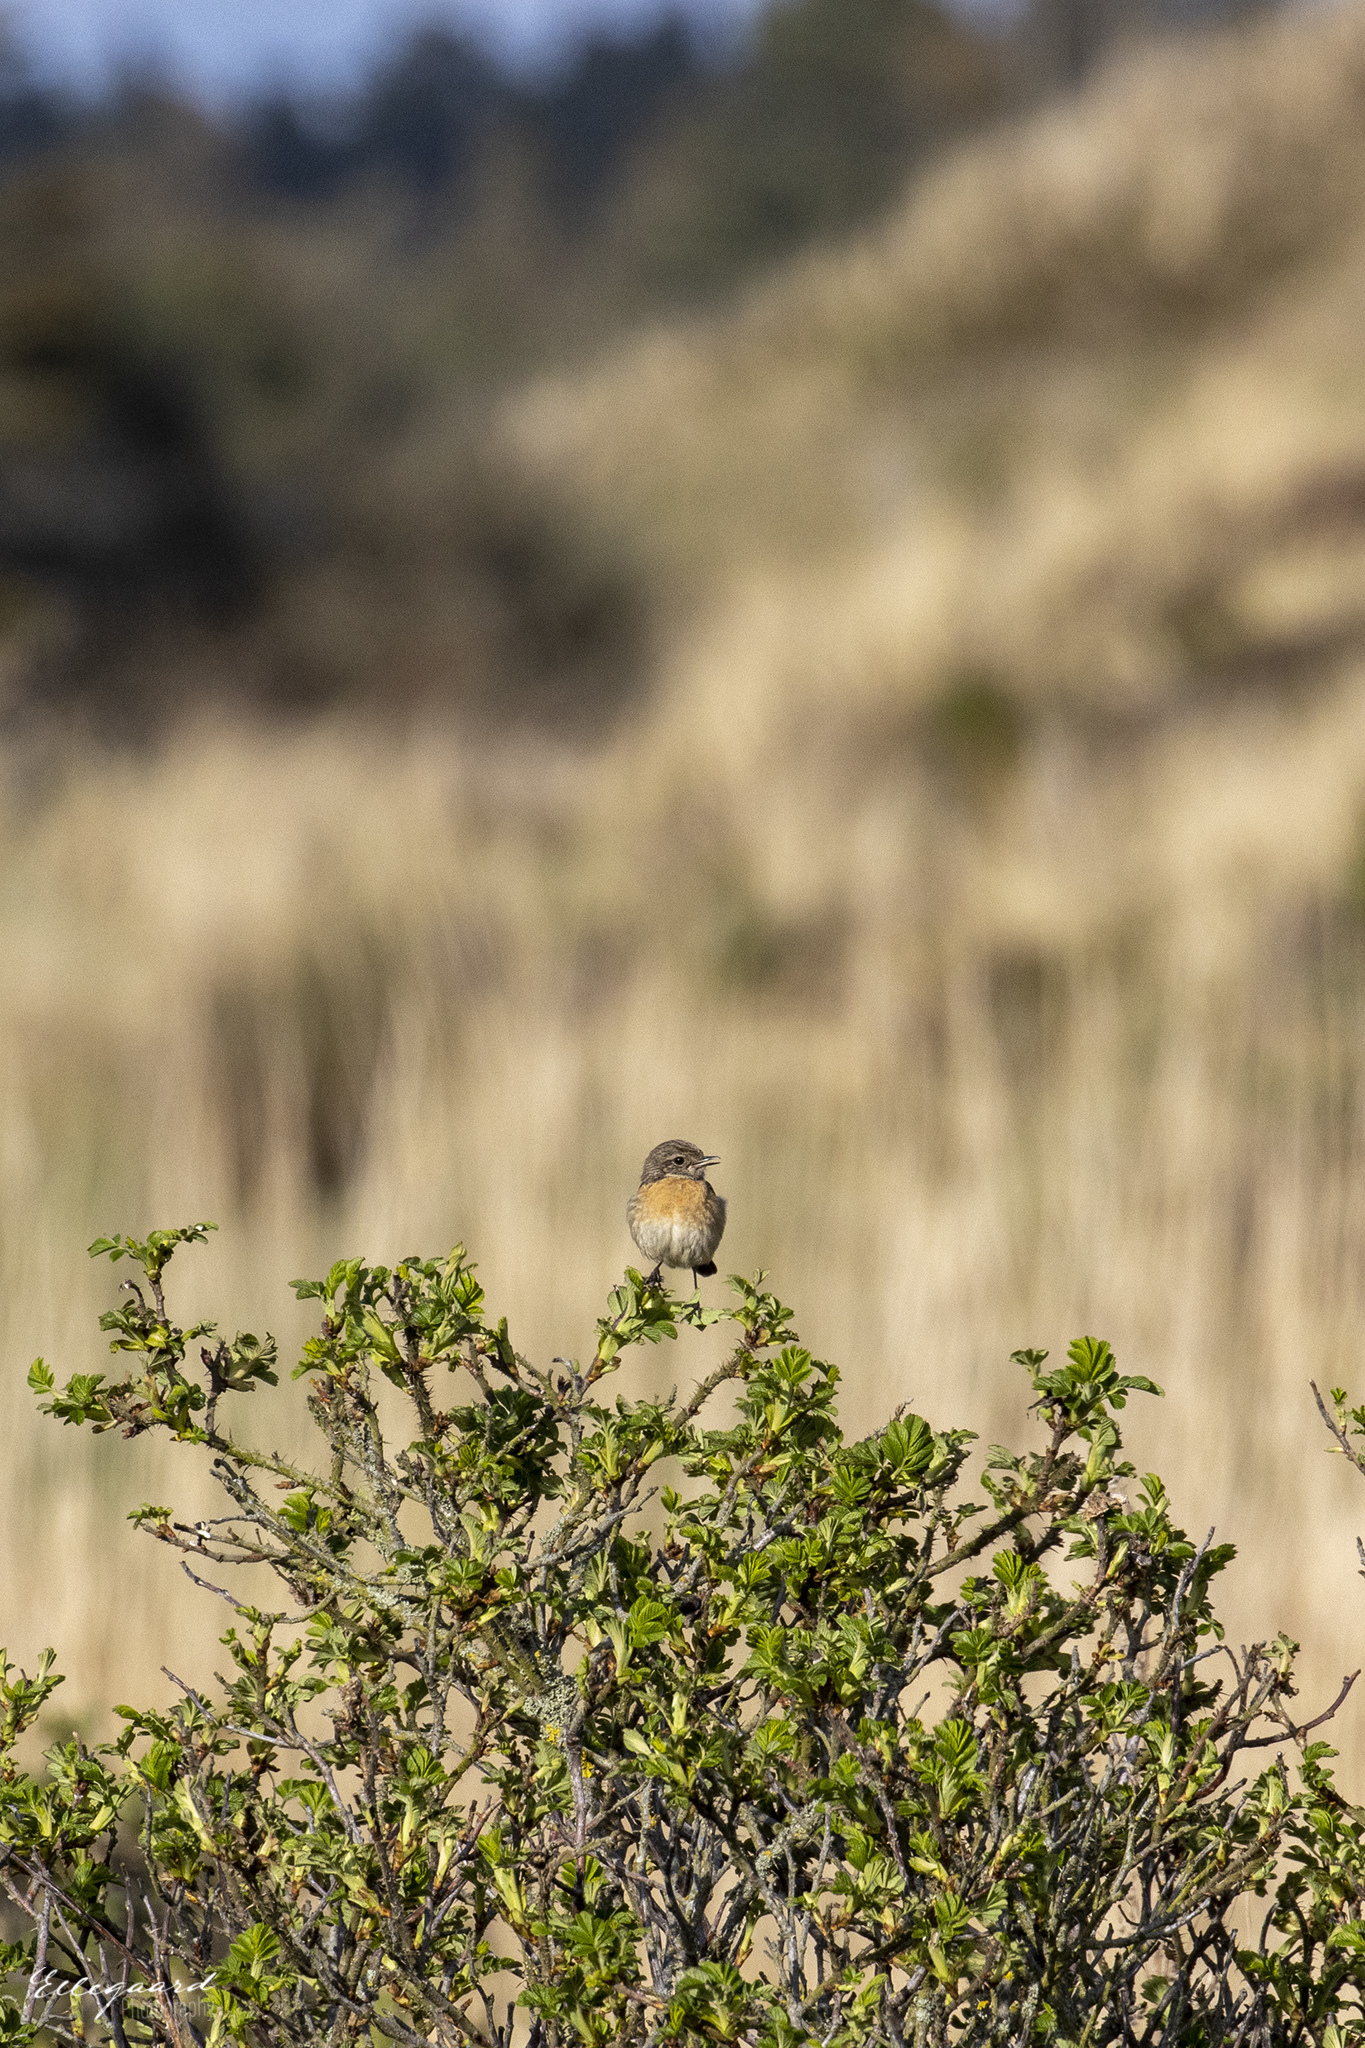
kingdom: Animalia
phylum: Chordata
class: Aves
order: Passeriformes
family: Muscicapidae
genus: Saxicola
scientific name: Saxicola rubicola
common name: European stonechat
